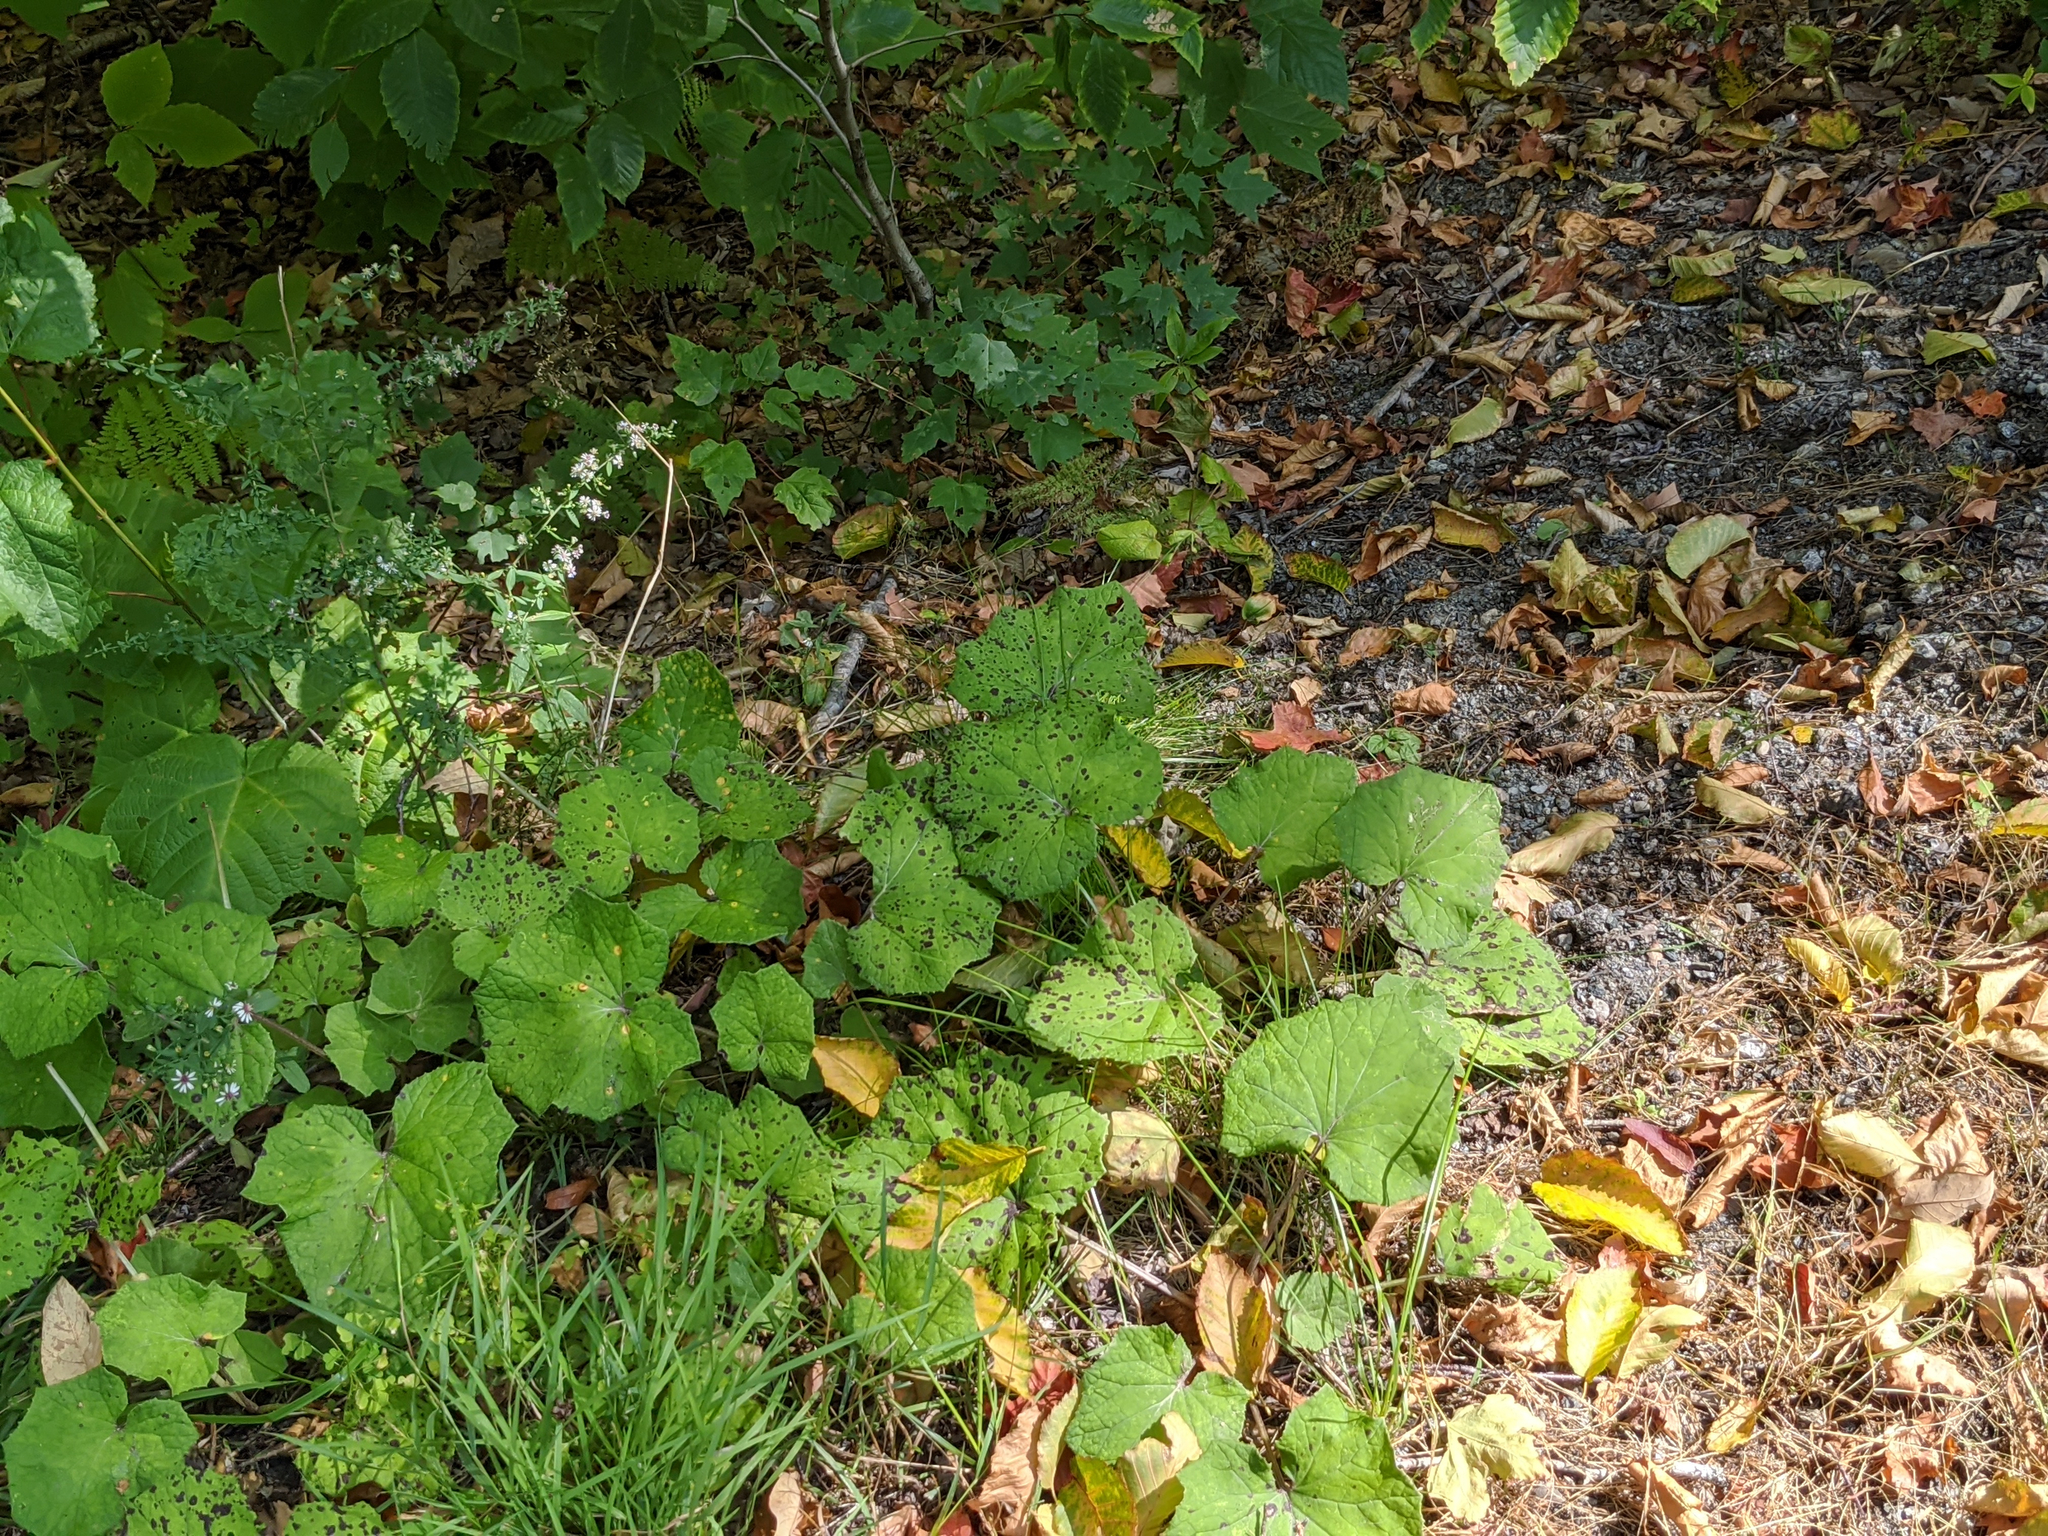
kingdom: Plantae
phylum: Tracheophyta
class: Magnoliopsida
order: Asterales
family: Asteraceae
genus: Tussilago
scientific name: Tussilago farfara
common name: Coltsfoot
